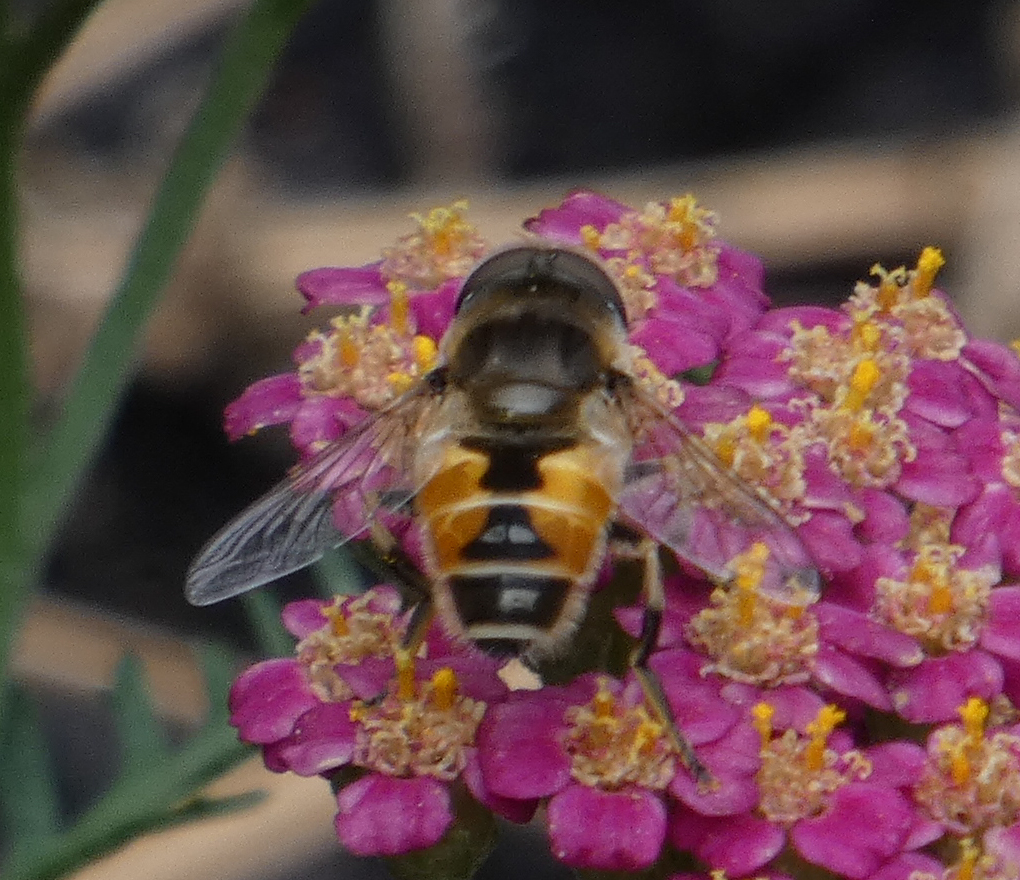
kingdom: Animalia
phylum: Arthropoda
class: Insecta
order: Diptera
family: Syrphidae
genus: Eristalis
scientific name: Eristalis arbustorum
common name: Hover fly
